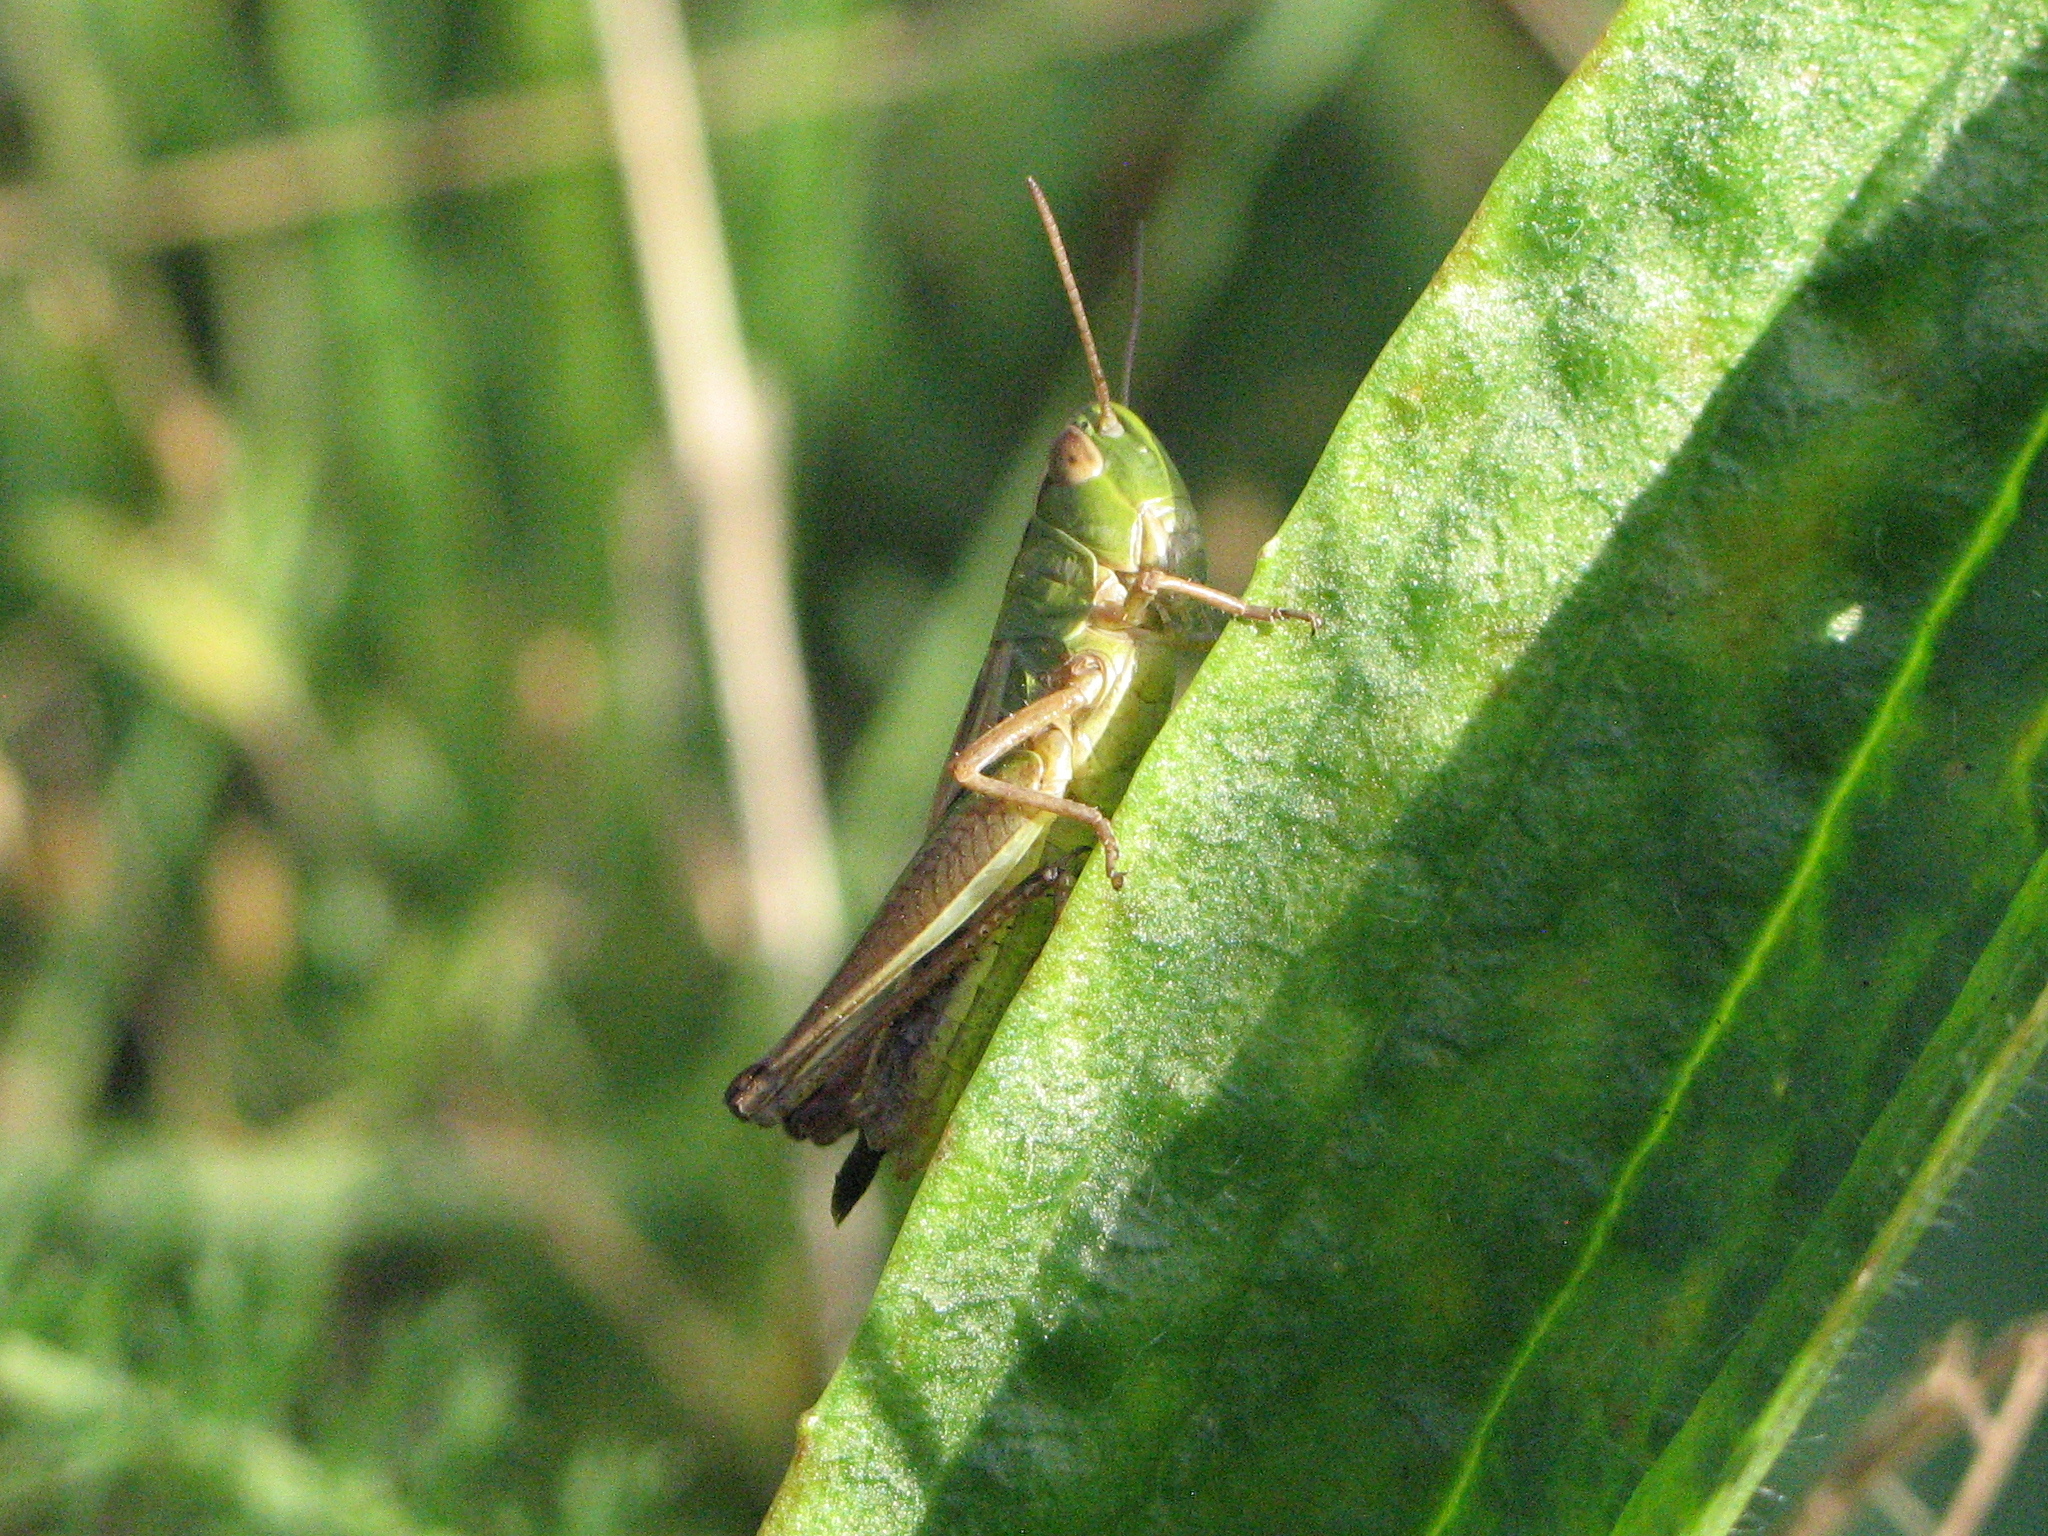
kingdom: Animalia
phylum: Arthropoda
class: Insecta
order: Orthoptera
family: Acrididae
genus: Pseudochorthippus
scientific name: Pseudochorthippus parallelus
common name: Meadow grasshopper
